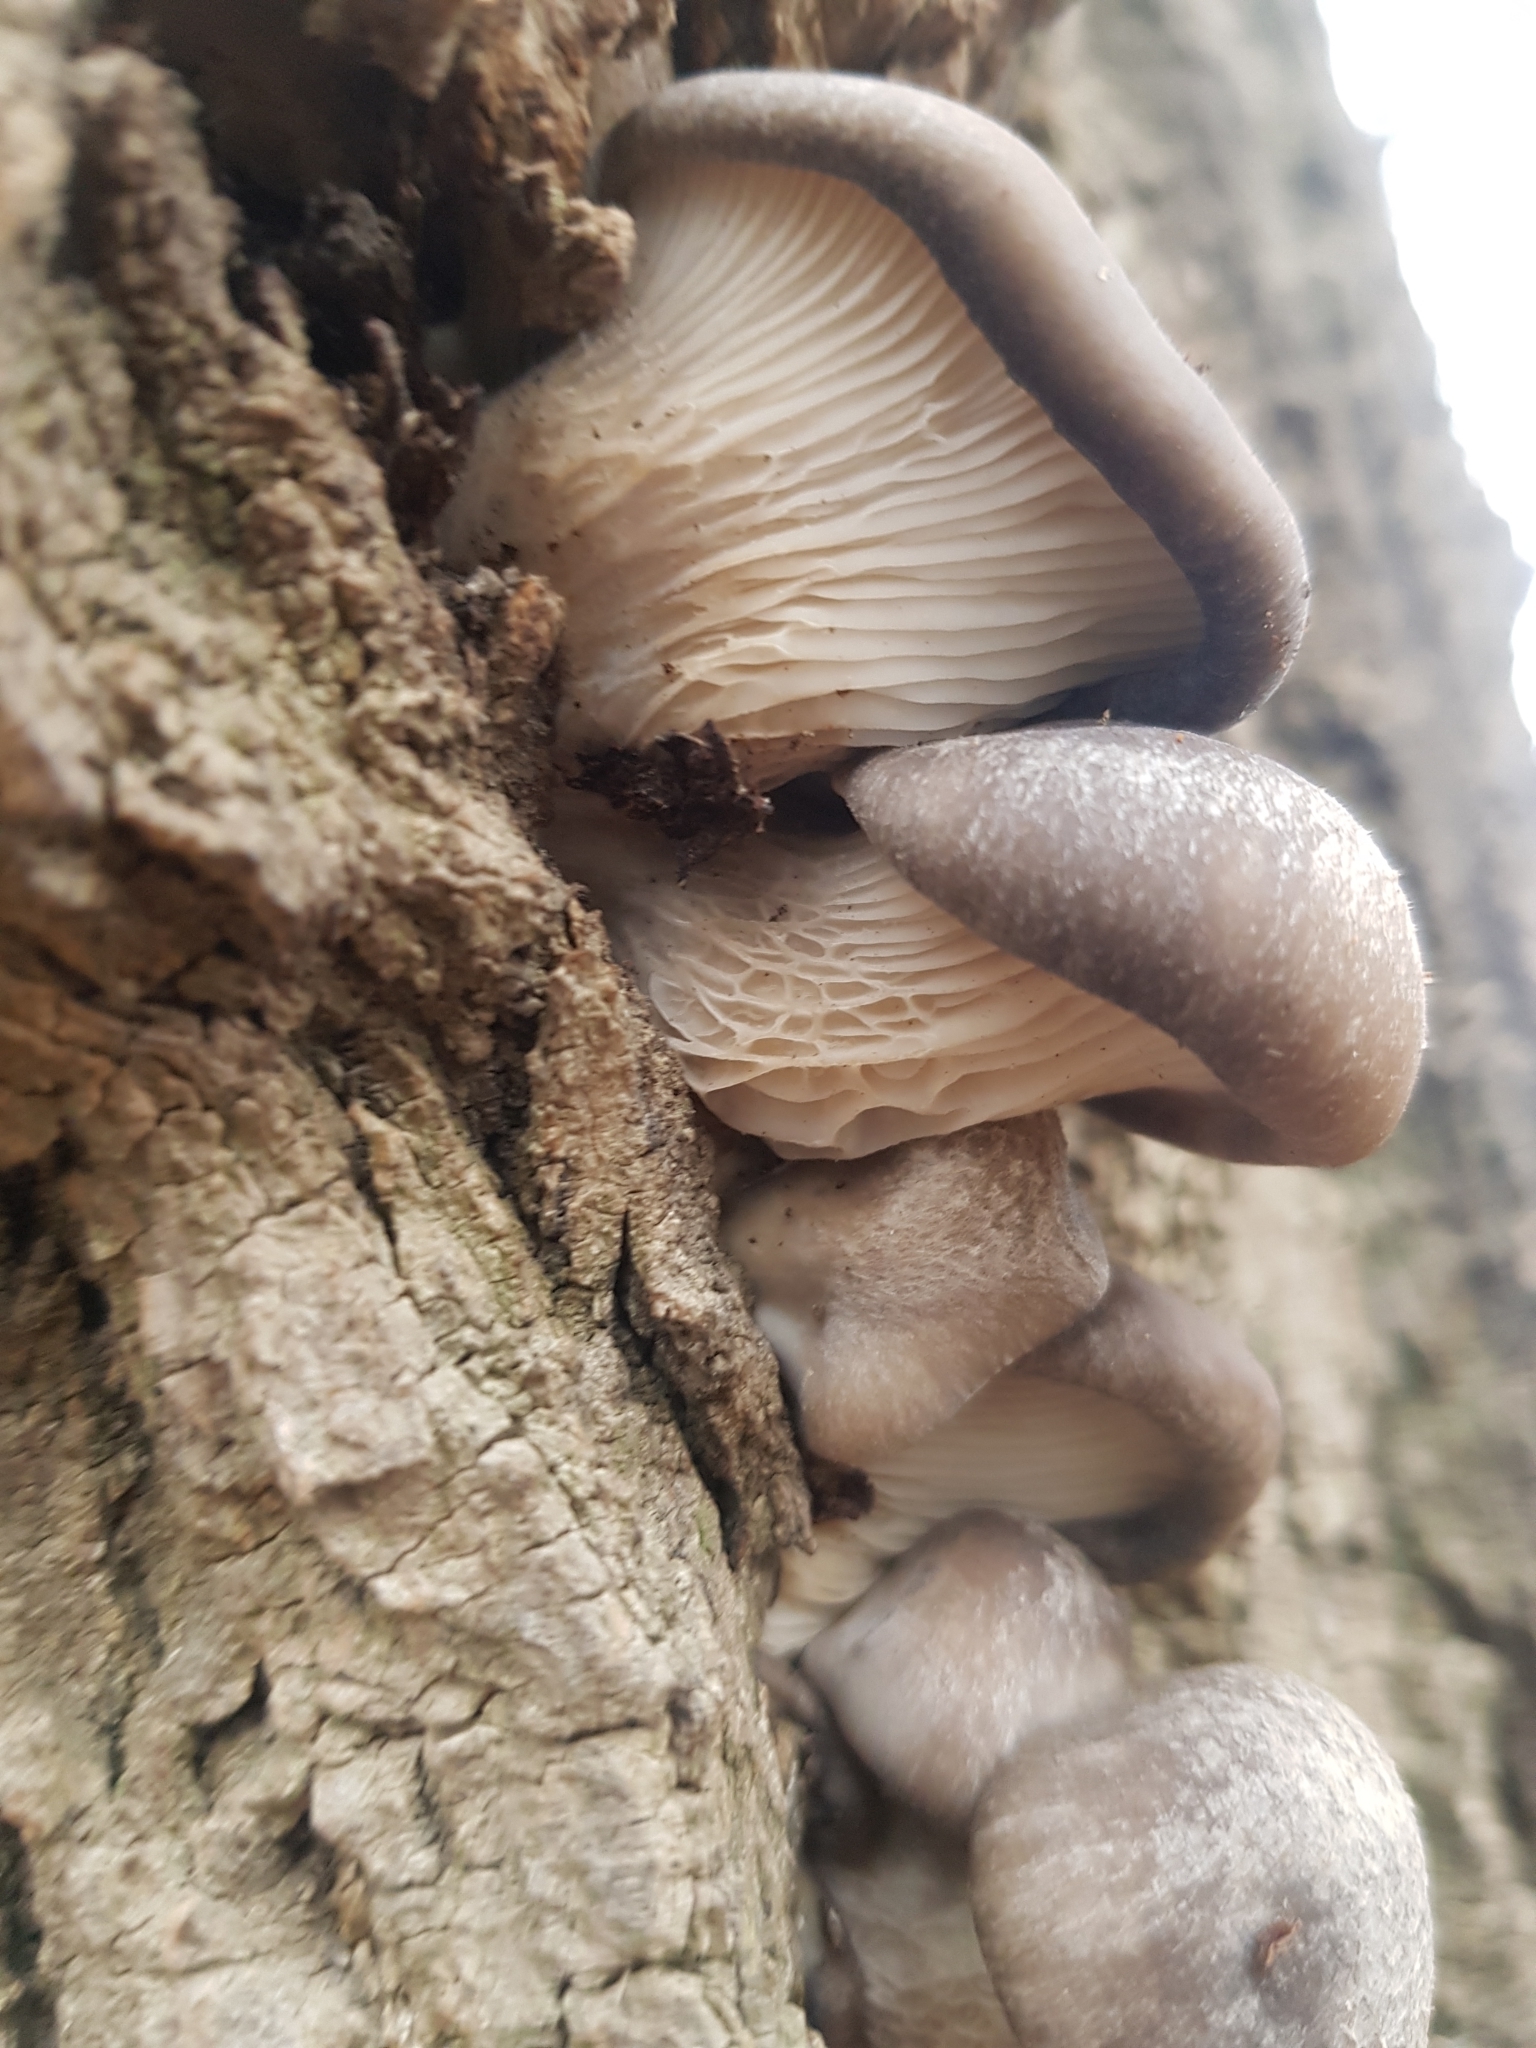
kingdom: Fungi
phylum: Basidiomycota
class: Agaricomycetes
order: Agaricales
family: Pleurotaceae
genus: Pleurotus
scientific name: Pleurotus ostreatus
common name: Oyster mushroom
